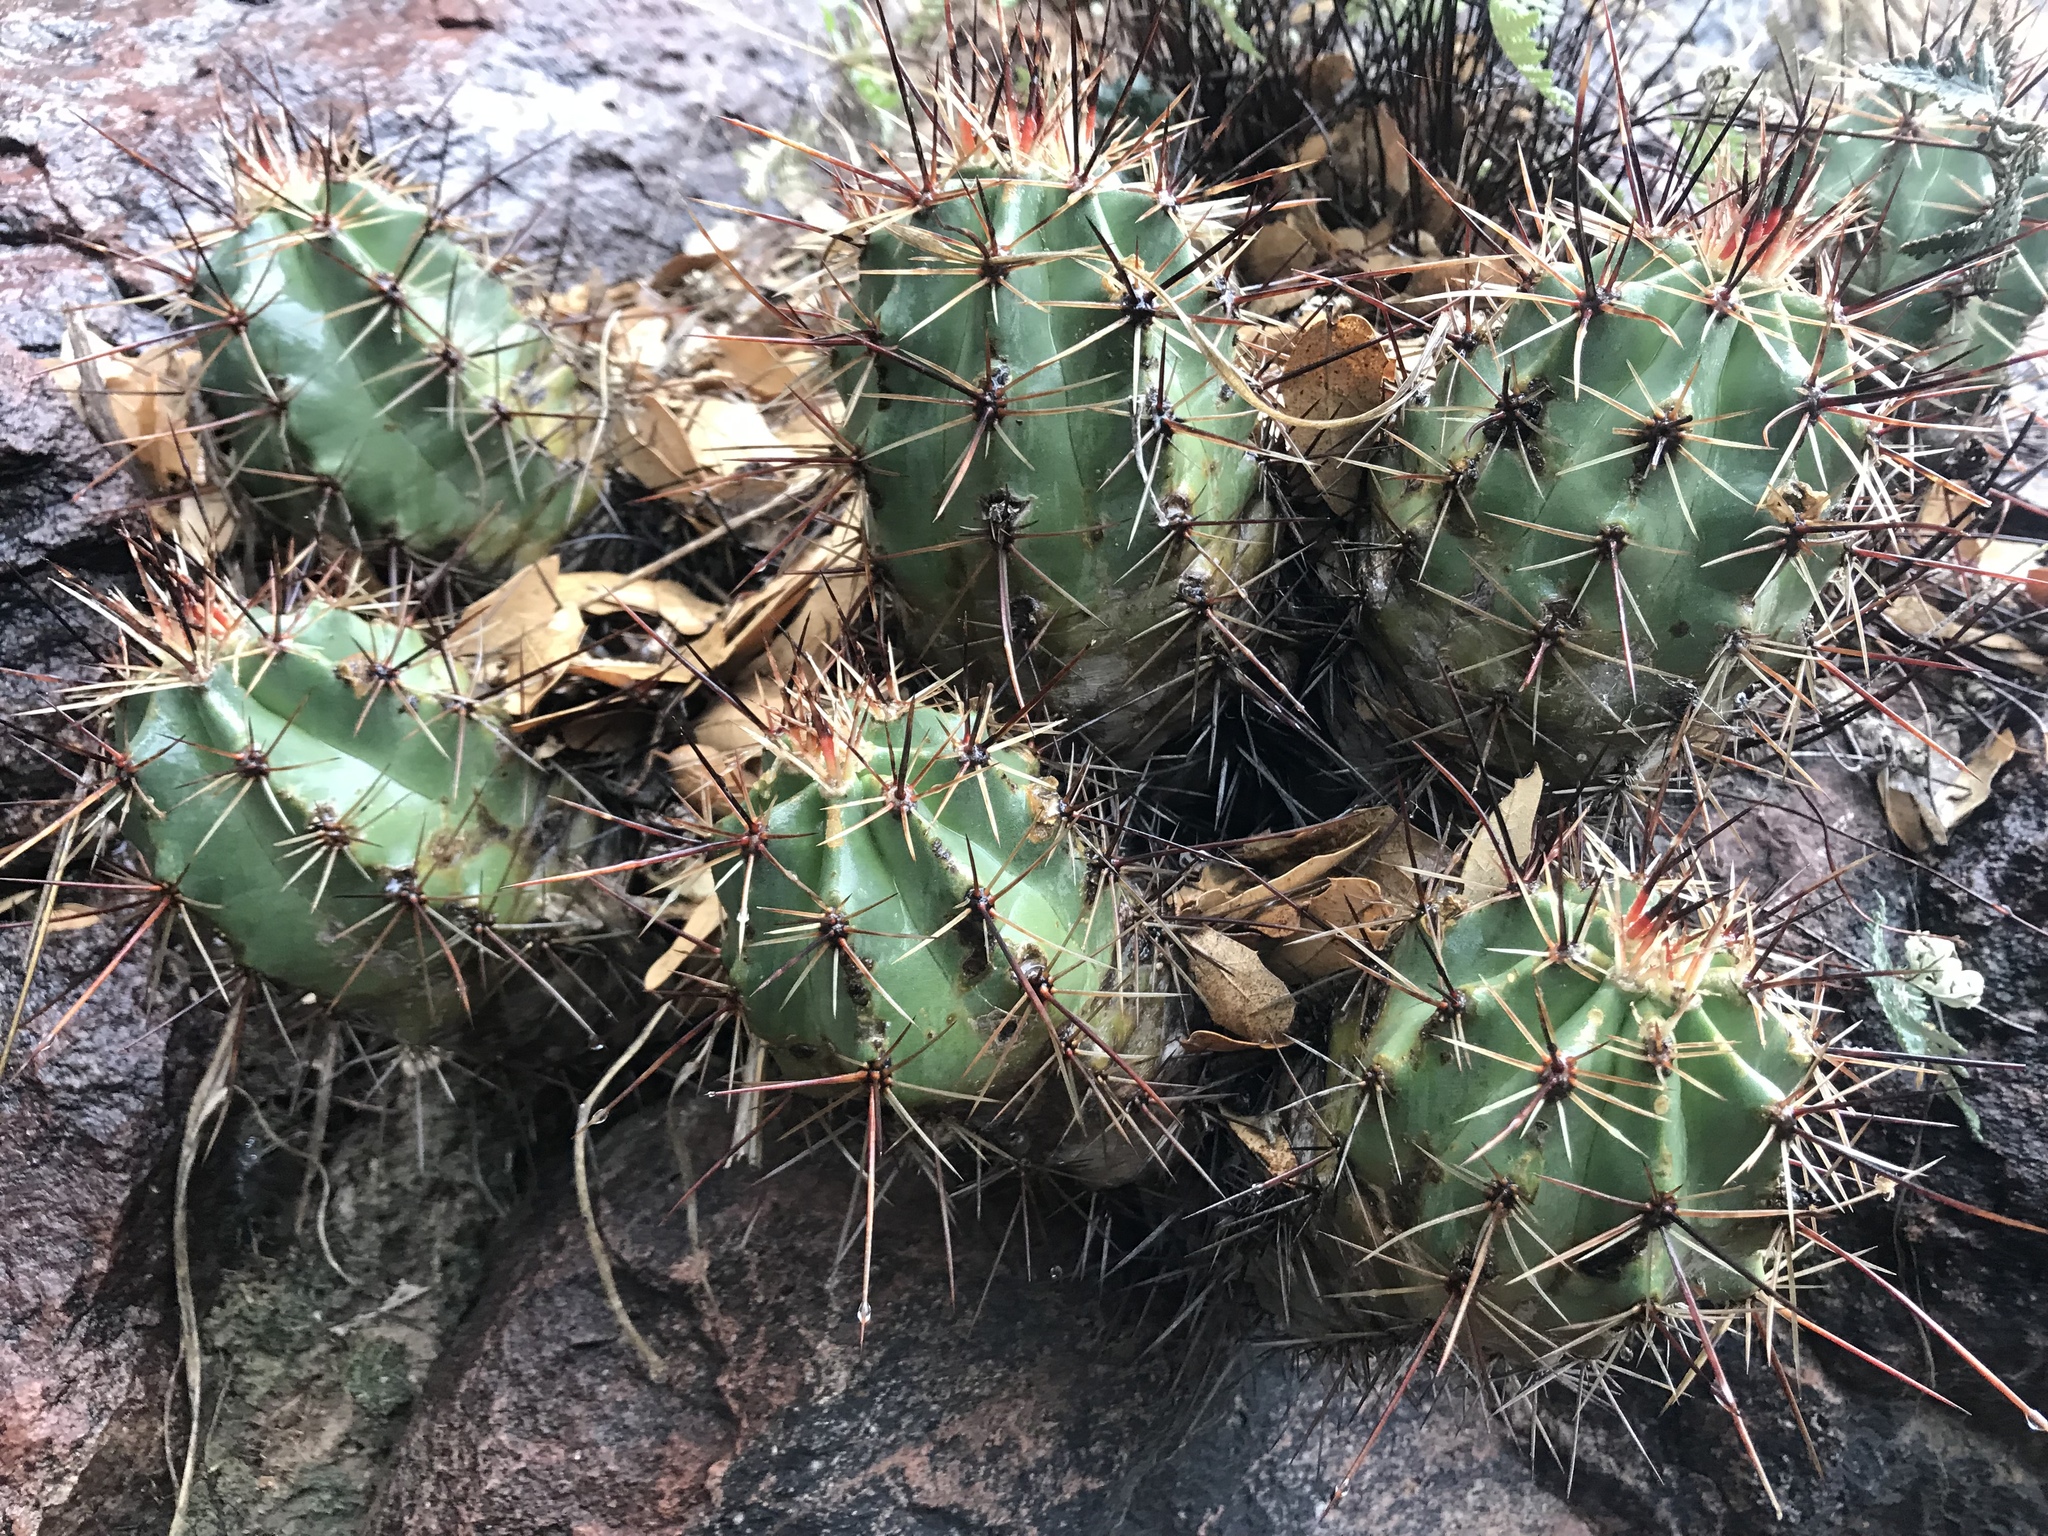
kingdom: Plantae
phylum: Tracheophyta
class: Magnoliopsida
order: Caryophyllales
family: Cactaceae
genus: Echinocereus
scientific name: Echinocereus coccineus
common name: Scarlet hedgehog cactus
